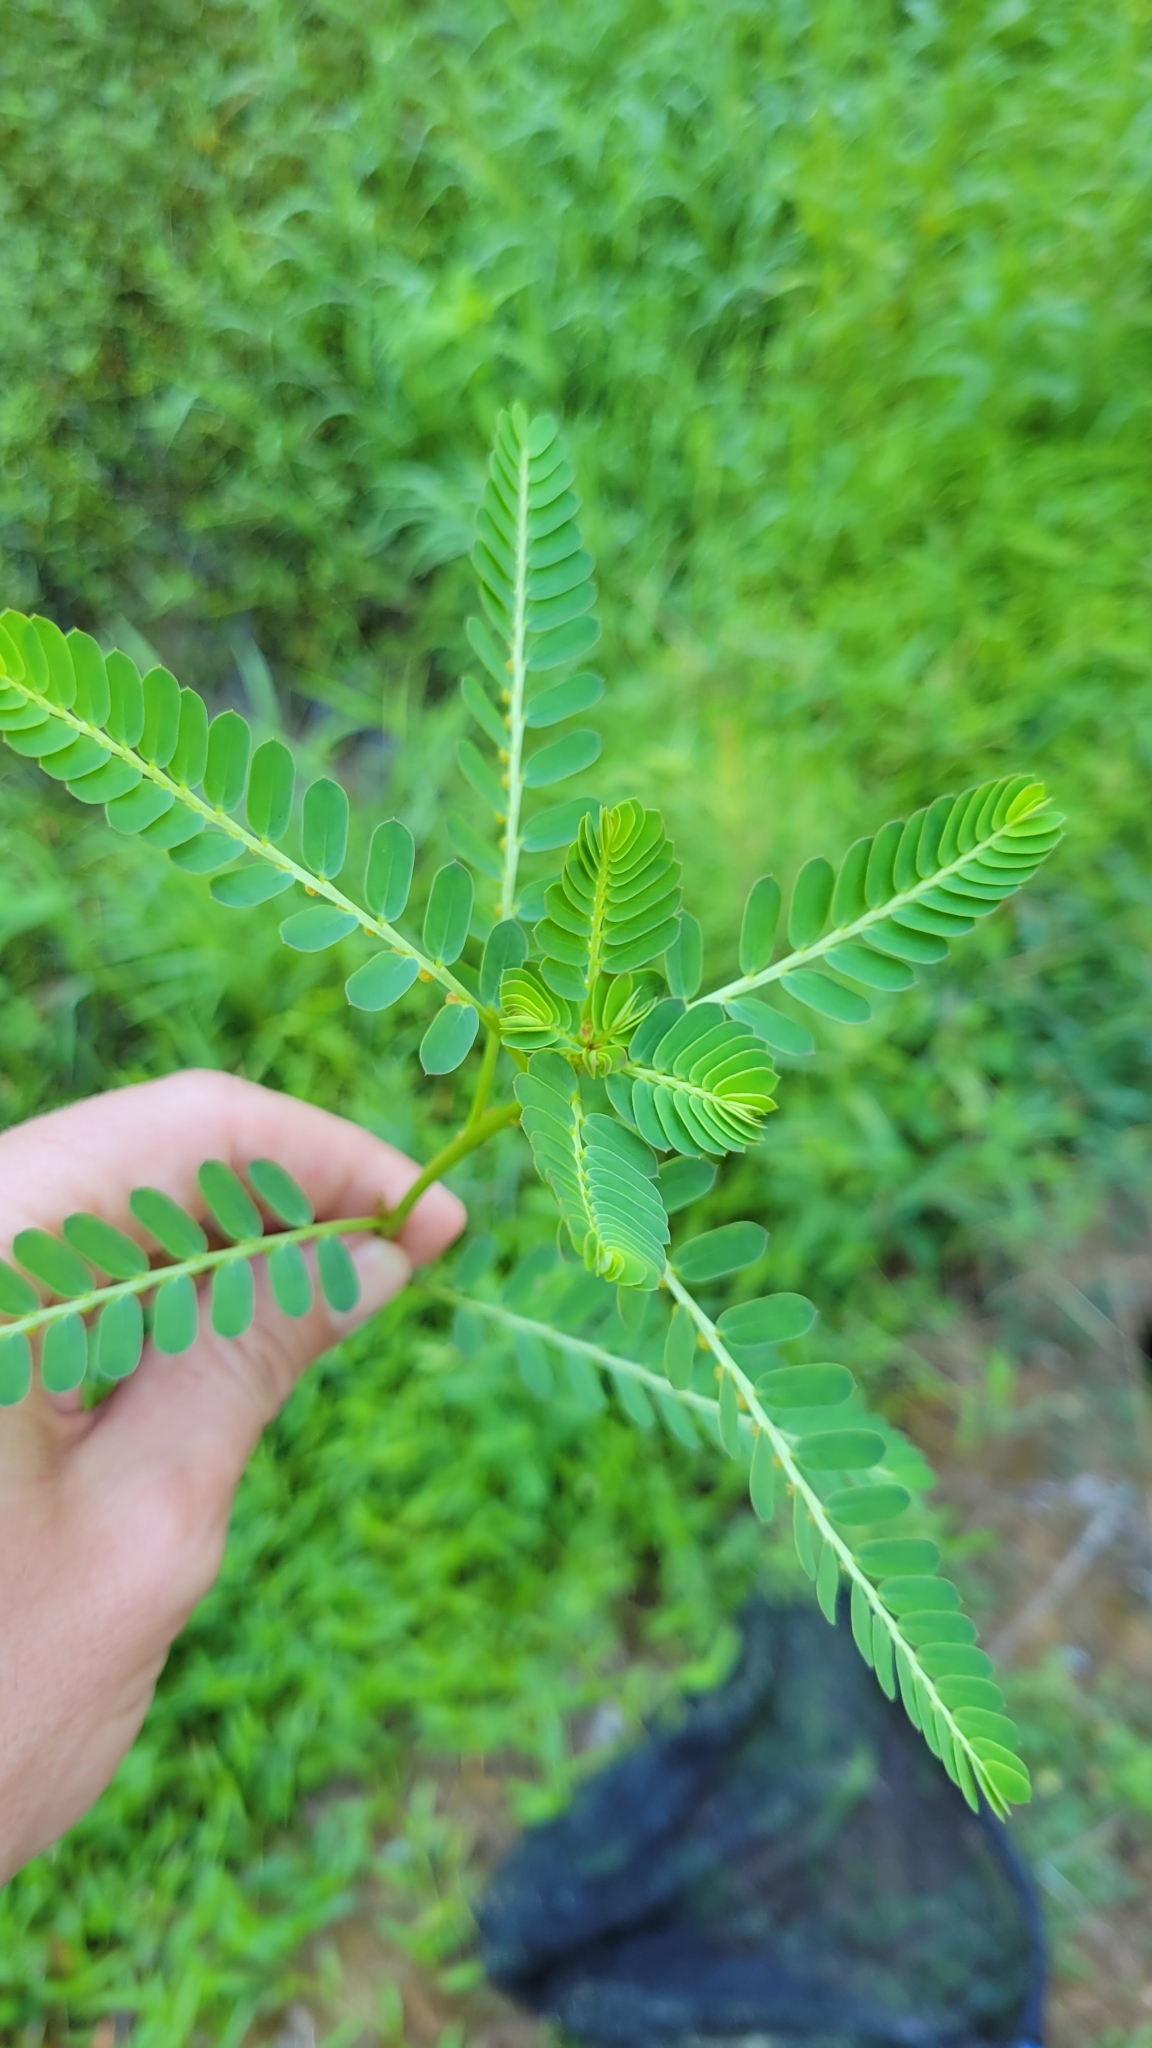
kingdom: Plantae
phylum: Tracheophyta
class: Magnoliopsida
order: Malpighiales
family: Phyllanthaceae
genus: Phyllanthus
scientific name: Phyllanthus urinaria
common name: Chamber bitter
